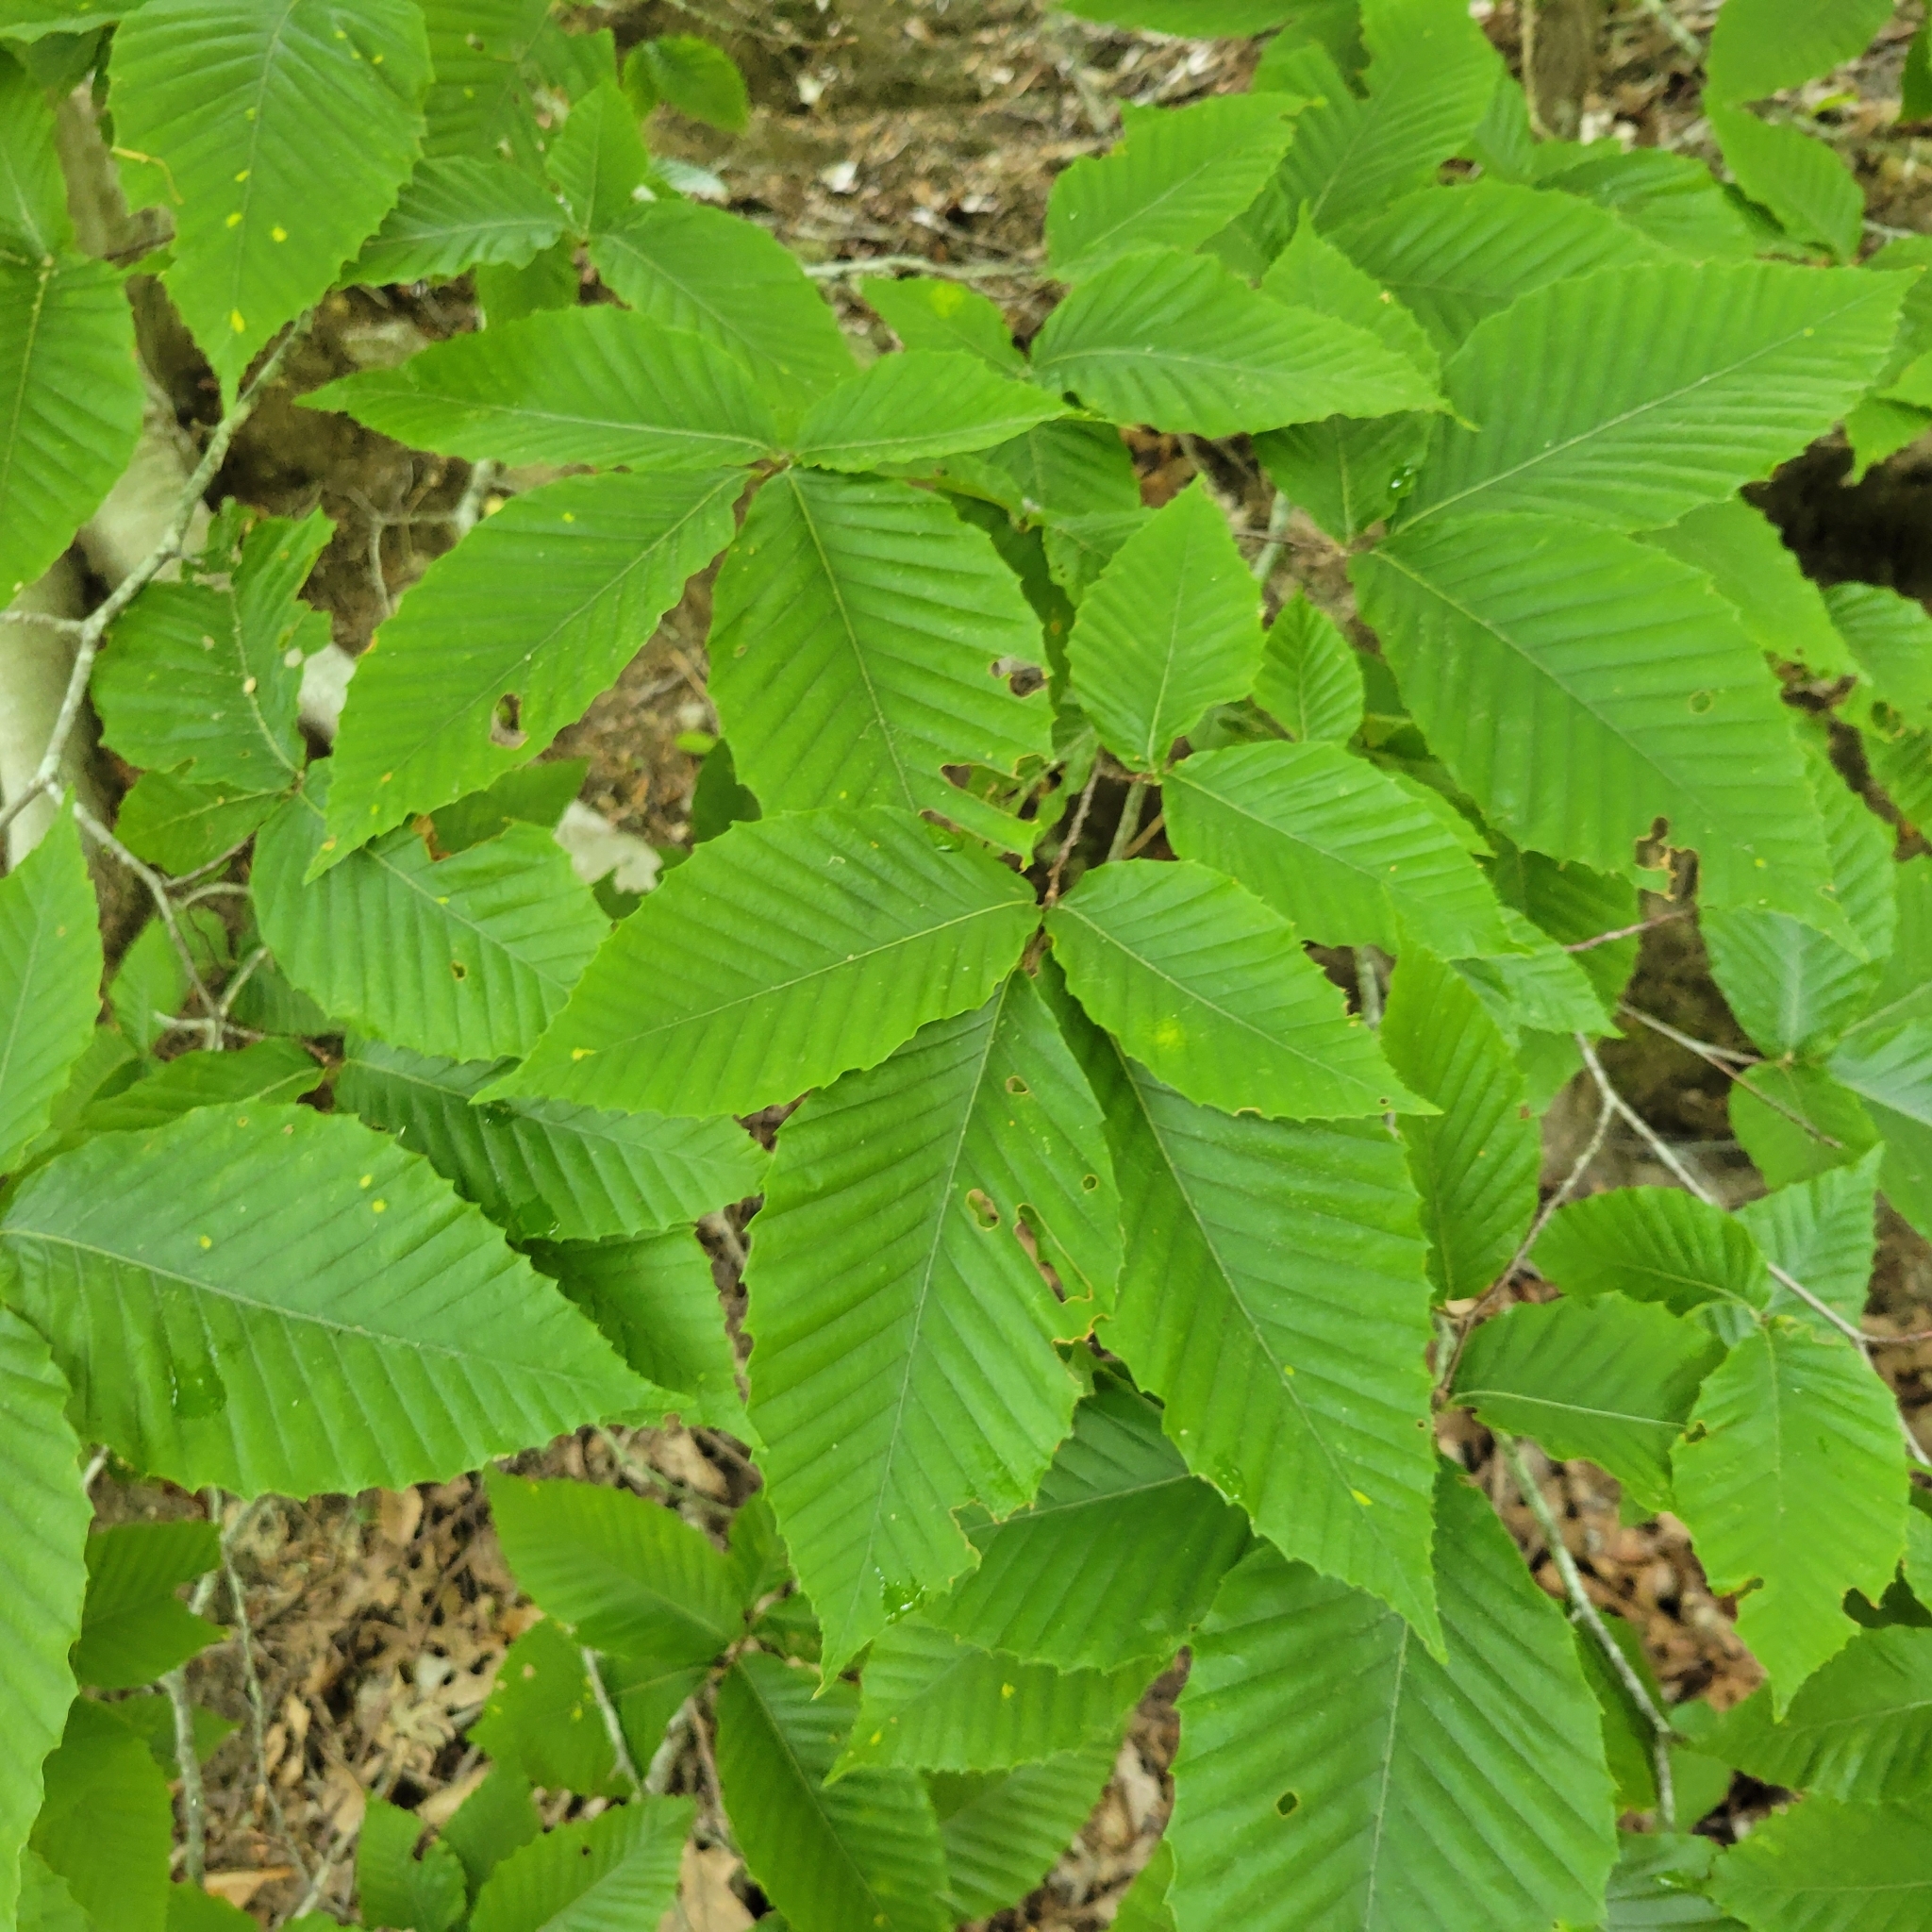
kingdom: Plantae
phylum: Tracheophyta
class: Magnoliopsida
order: Fagales
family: Fagaceae
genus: Fagus
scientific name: Fagus grandifolia
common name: American beech
